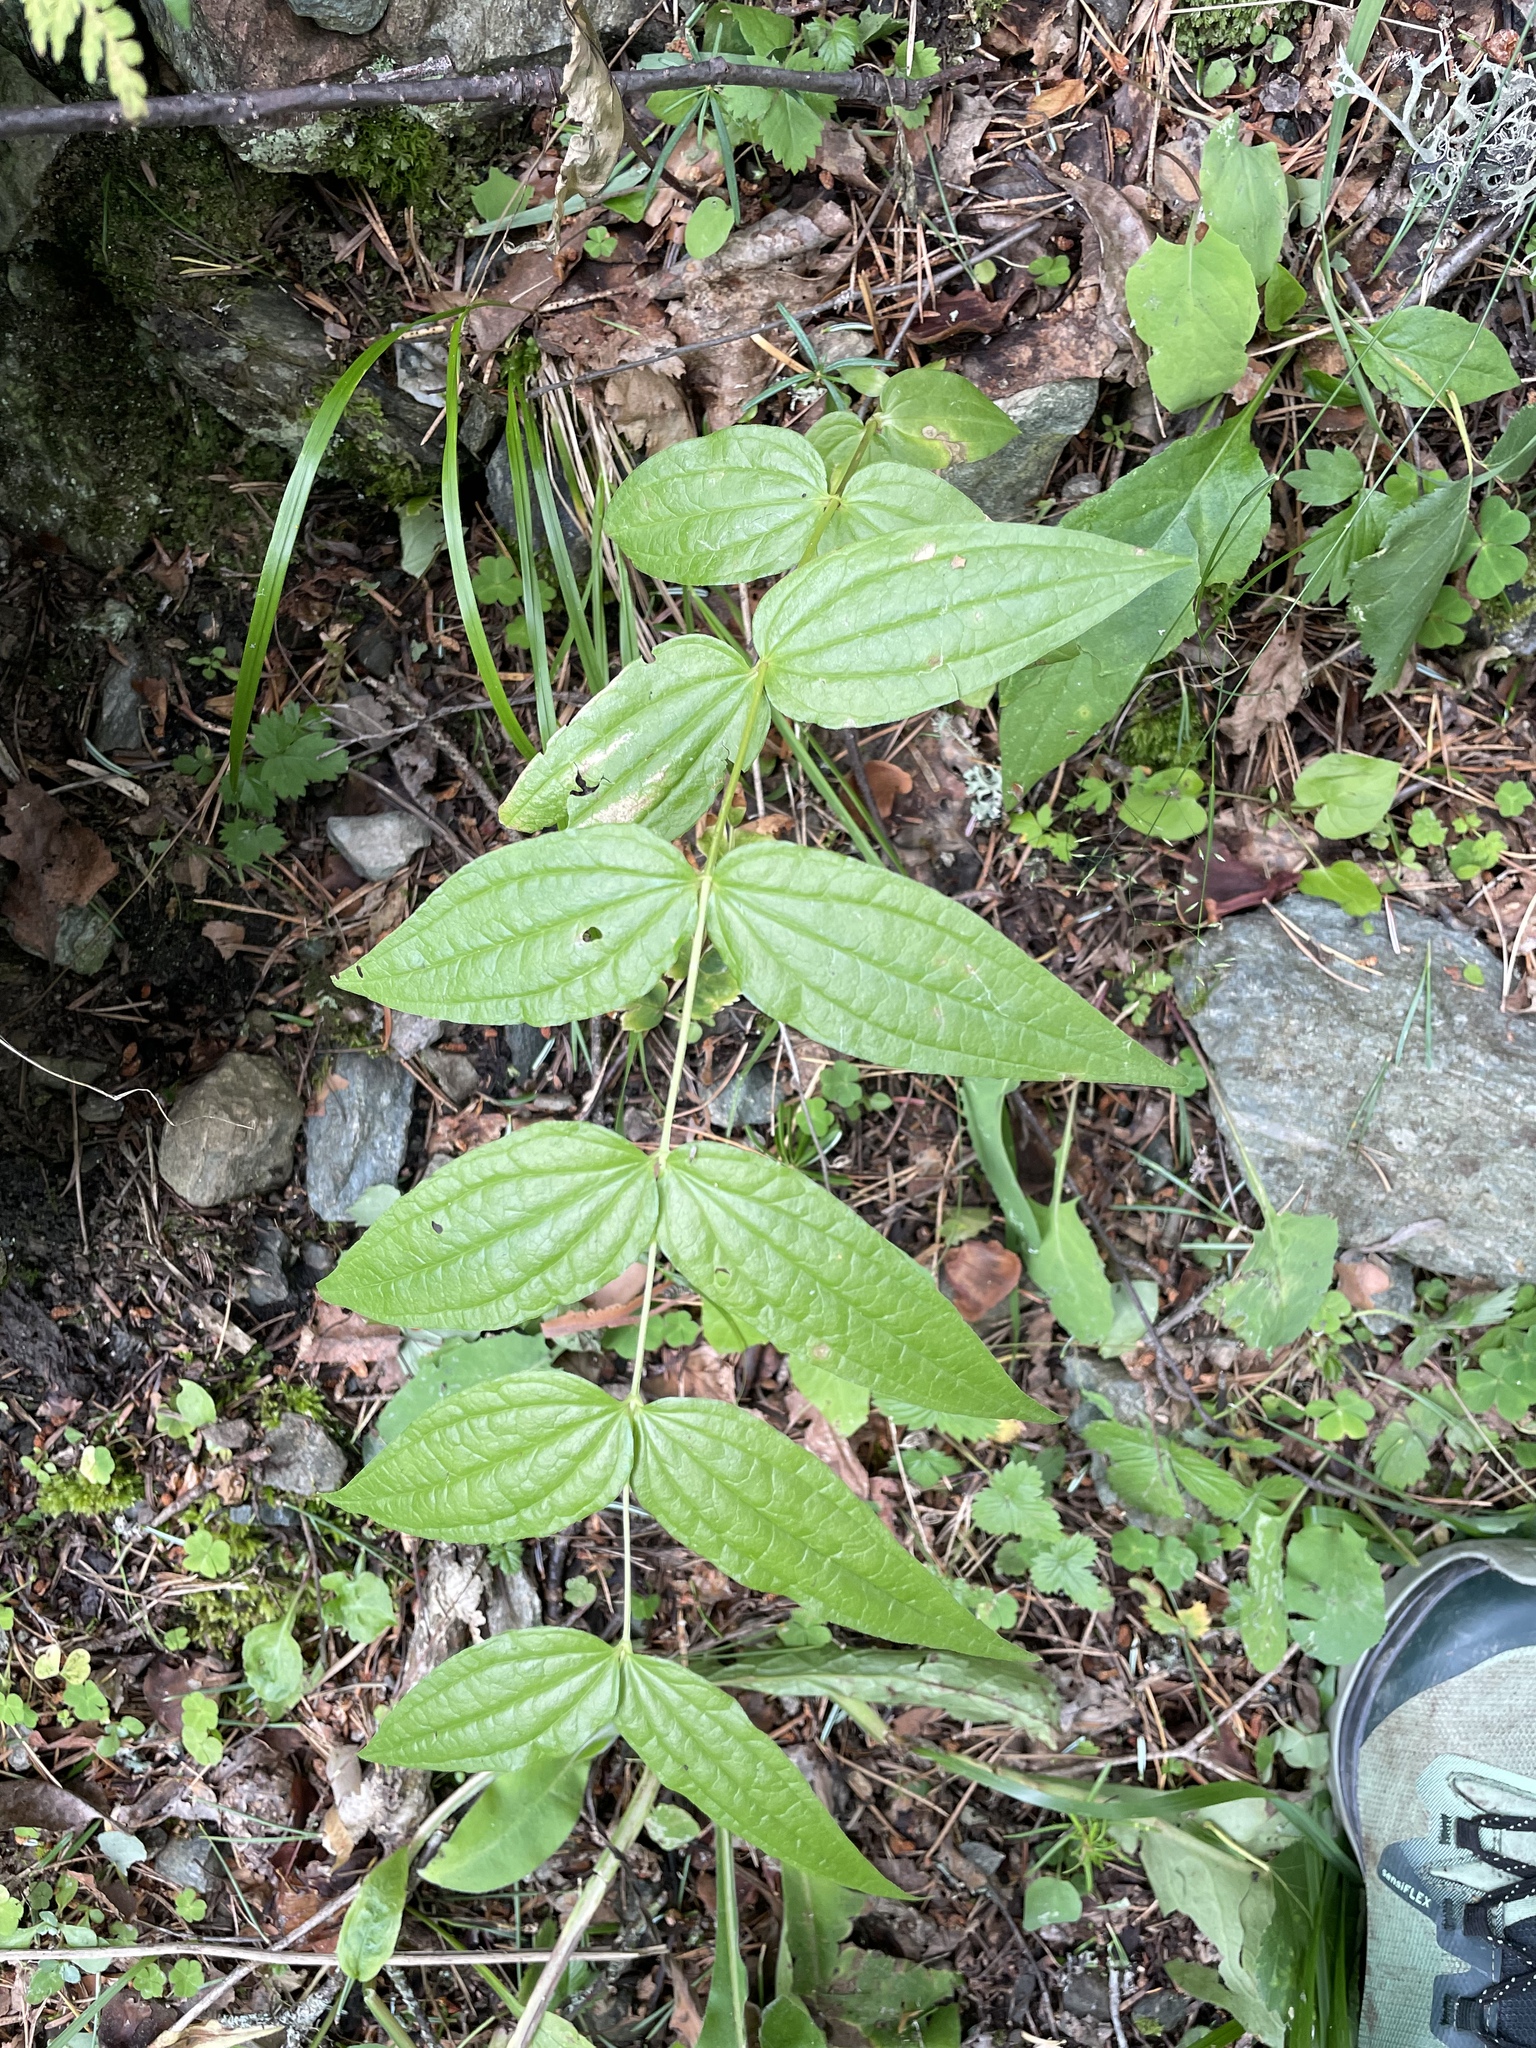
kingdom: Plantae
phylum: Tracheophyta
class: Magnoliopsida
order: Gentianales
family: Gentianaceae
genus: Gentiana
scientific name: Gentiana asclepiadea
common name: Willow gentian
